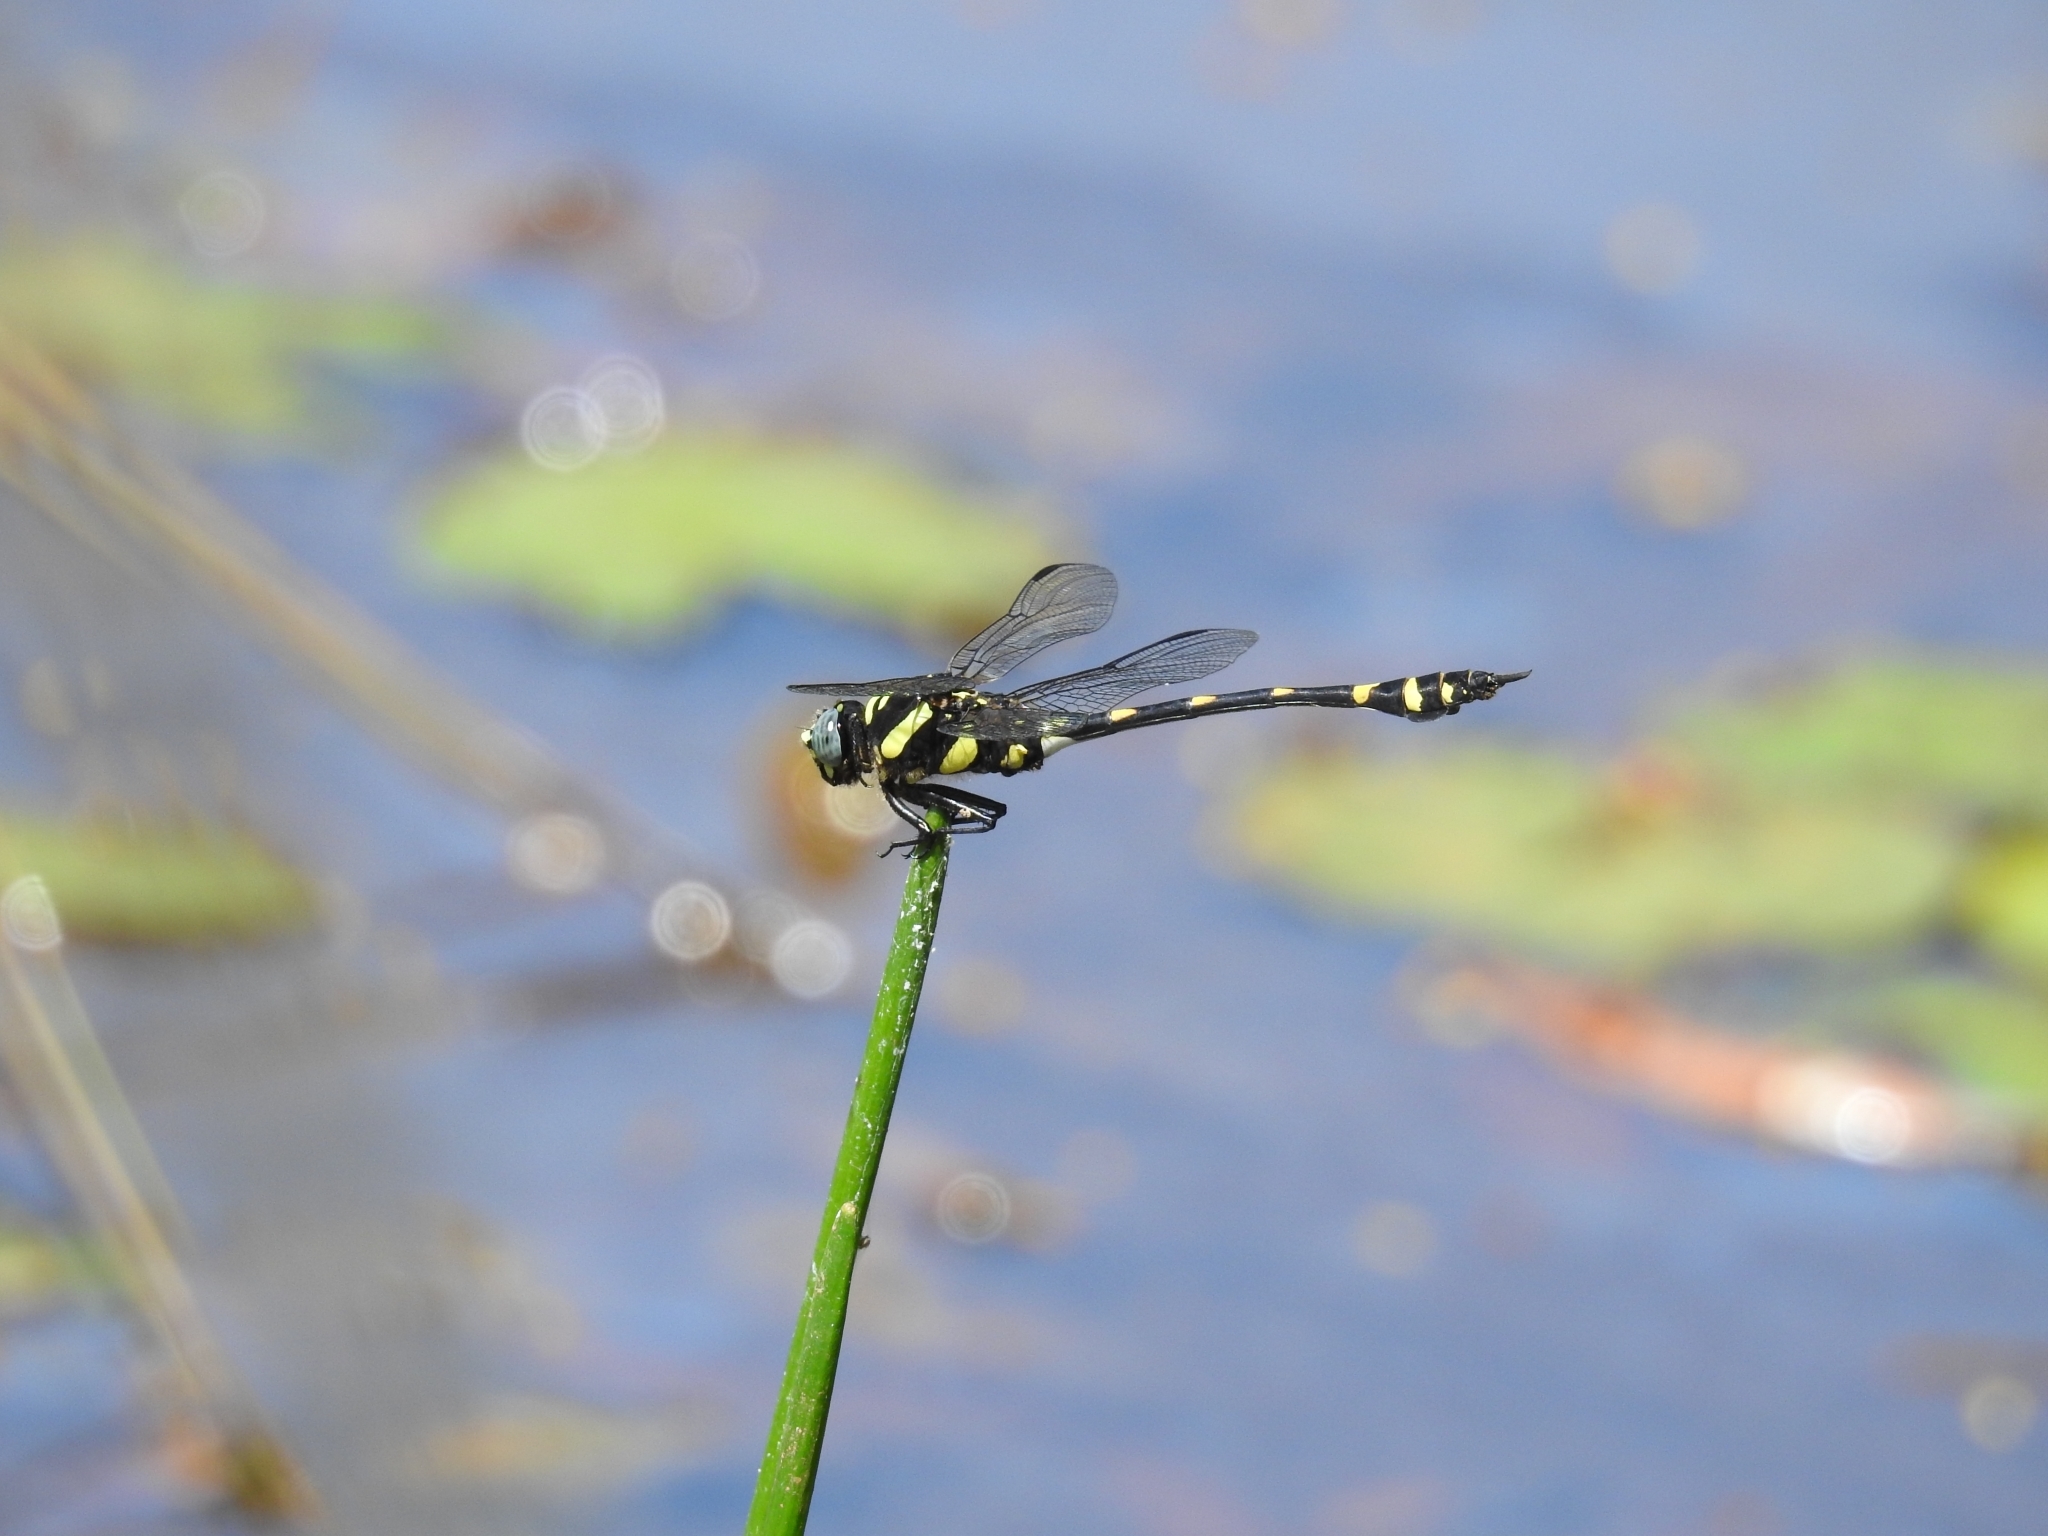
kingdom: Animalia
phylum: Arthropoda
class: Insecta
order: Odonata
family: Gomphidae
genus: Ictinogomphus
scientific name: Ictinogomphus rapax
